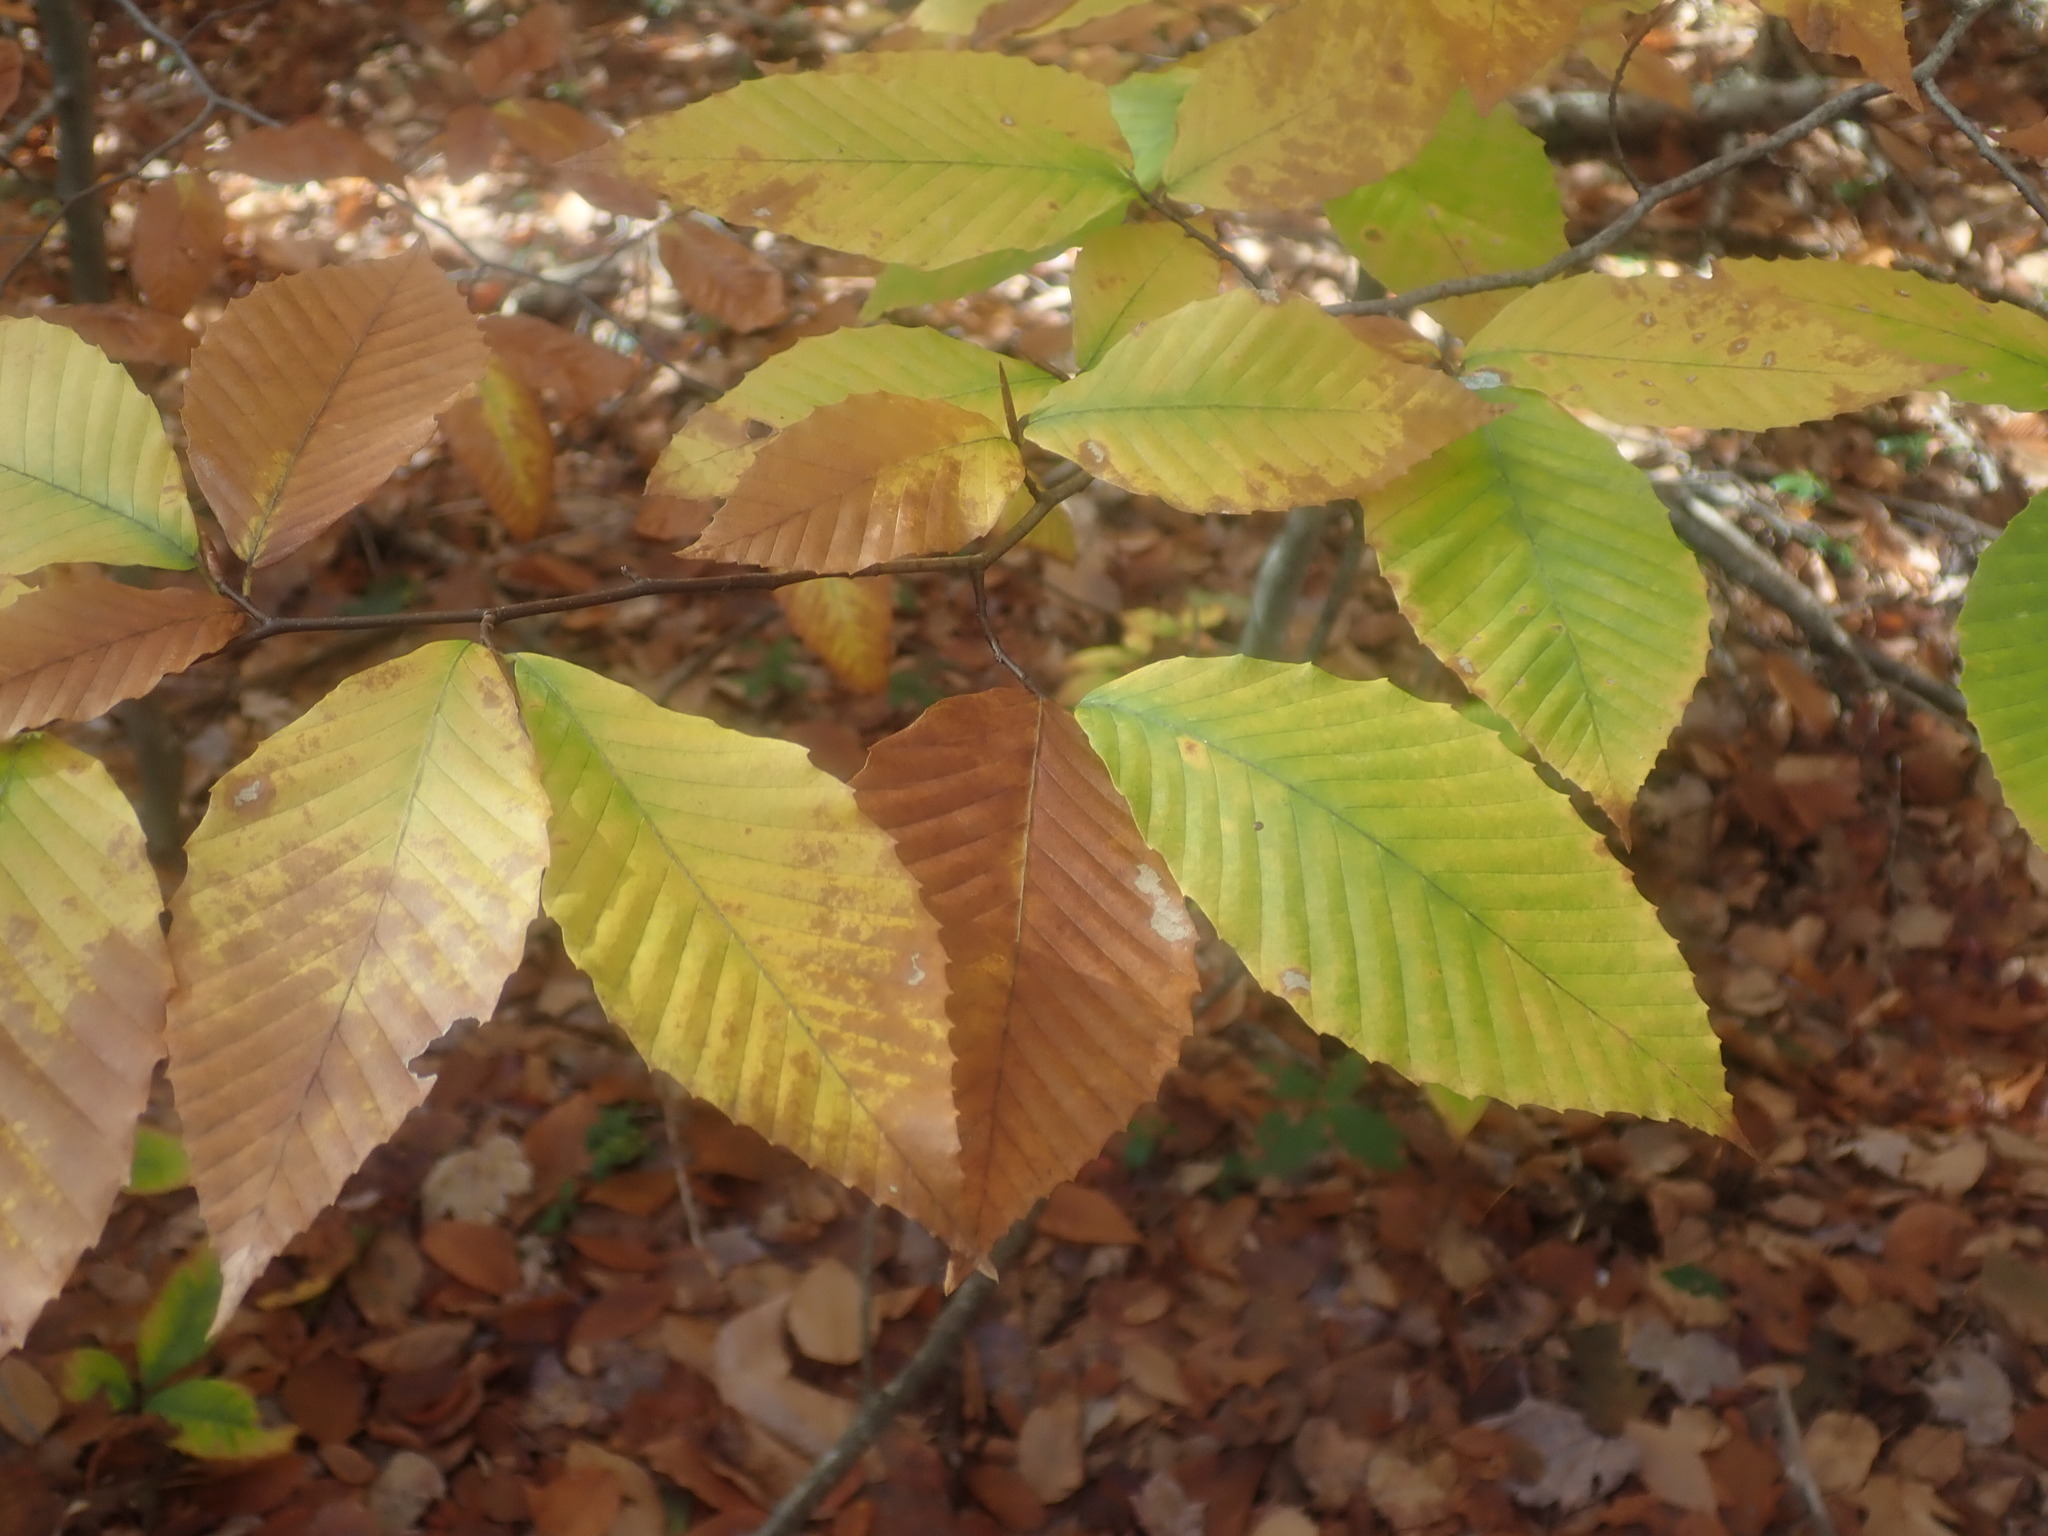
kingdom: Plantae
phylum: Tracheophyta
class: Magnoliopsida
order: Fagales
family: Fagaceae
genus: Fagus
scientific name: Fagus grandifolia
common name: American beech
